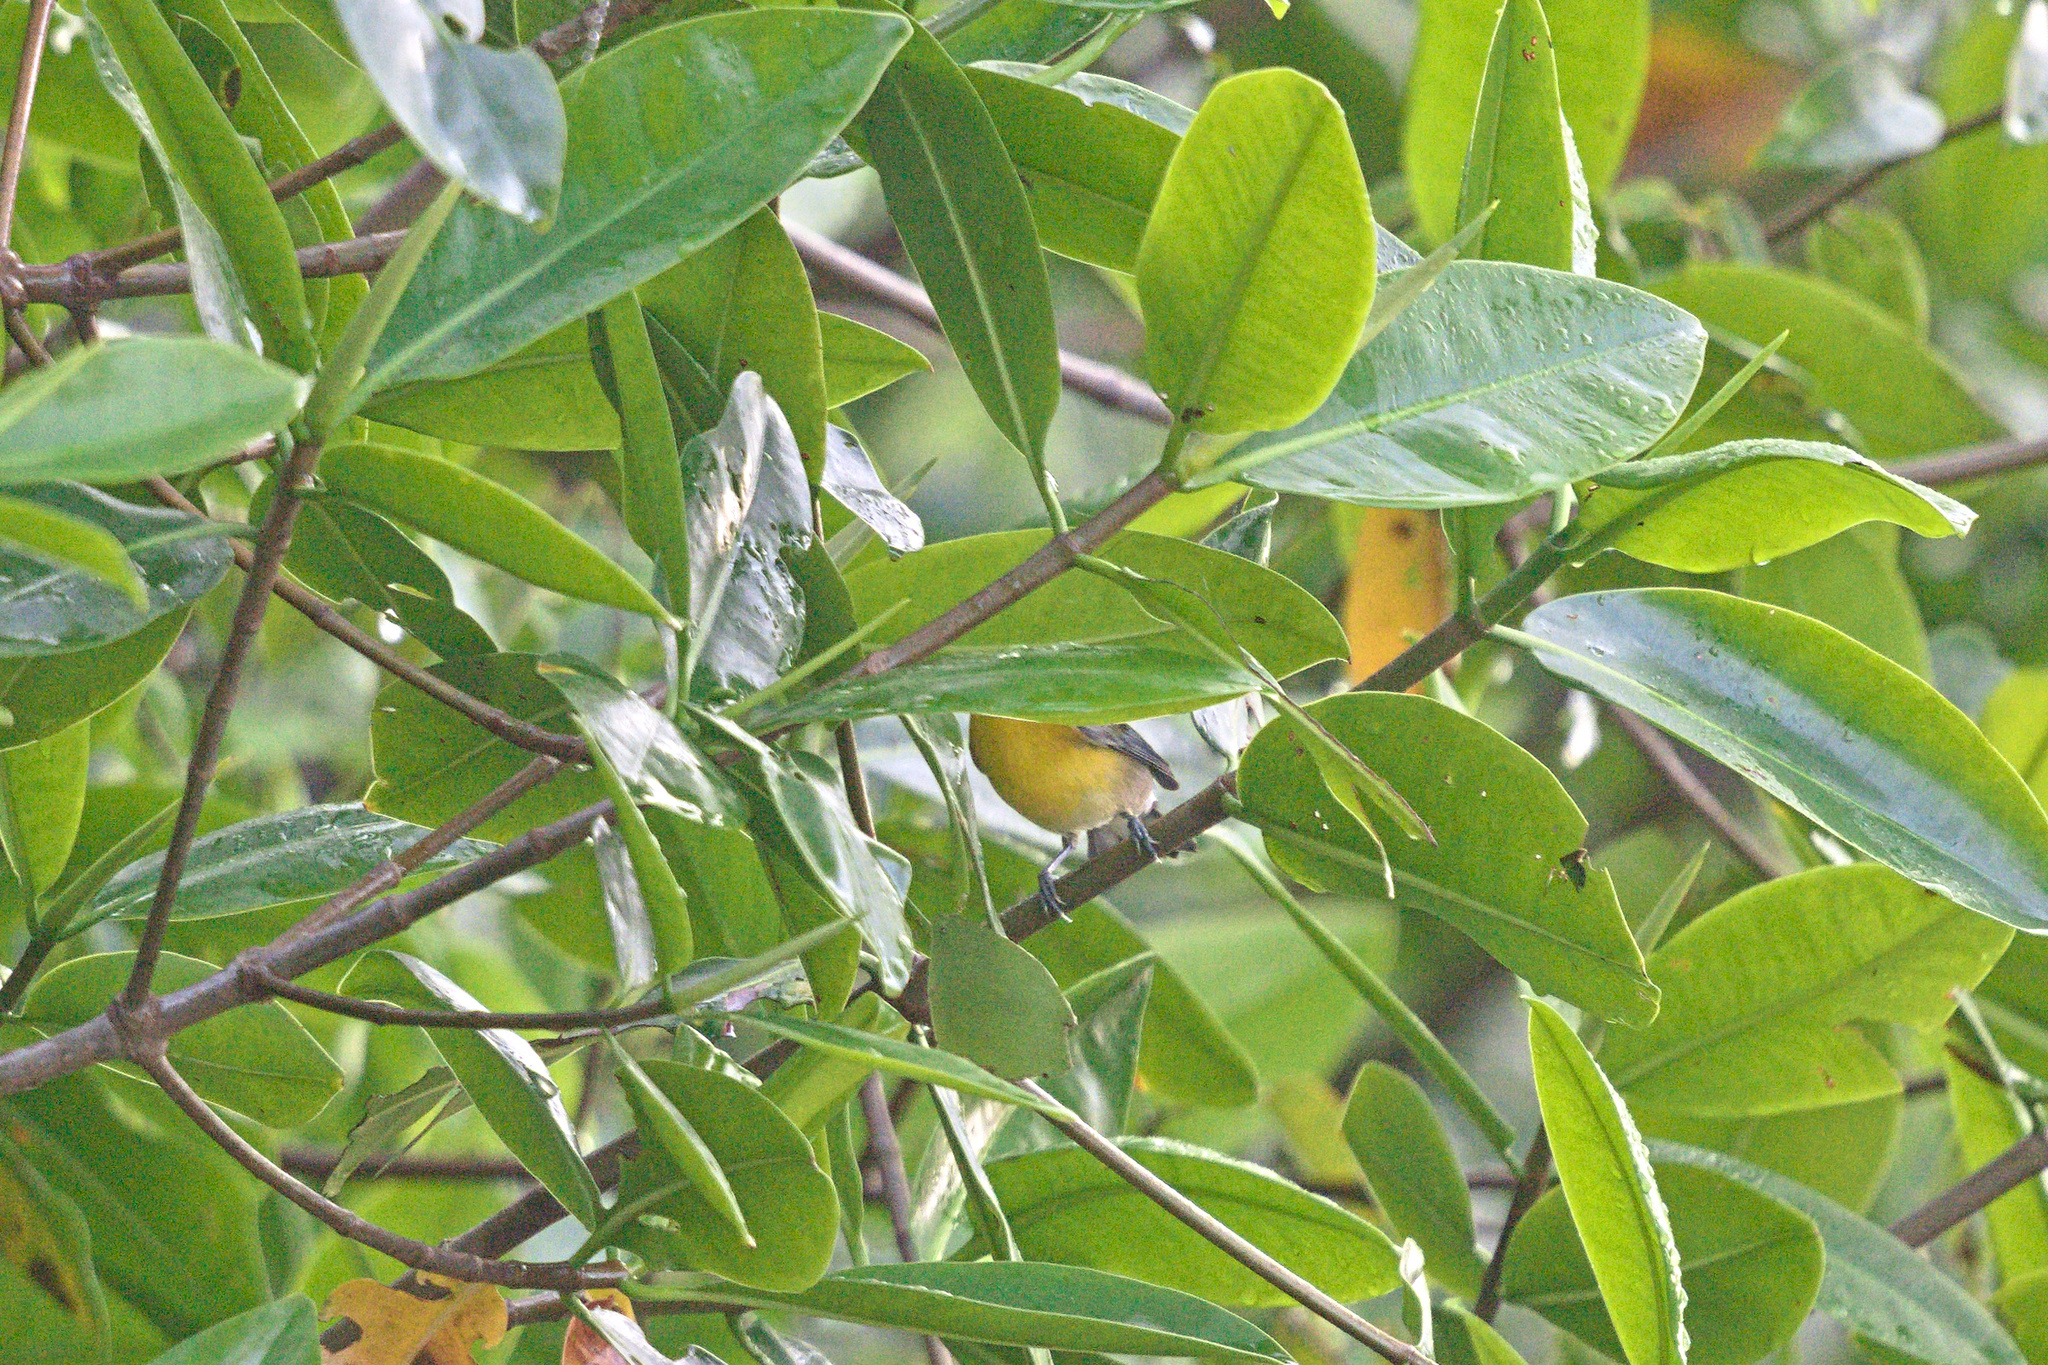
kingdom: Animalia
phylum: Chordata
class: Aves
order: Passeriformes
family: Parulidae
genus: Protonotaria
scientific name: Protonotaria citrea
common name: Prothonotary warbler
